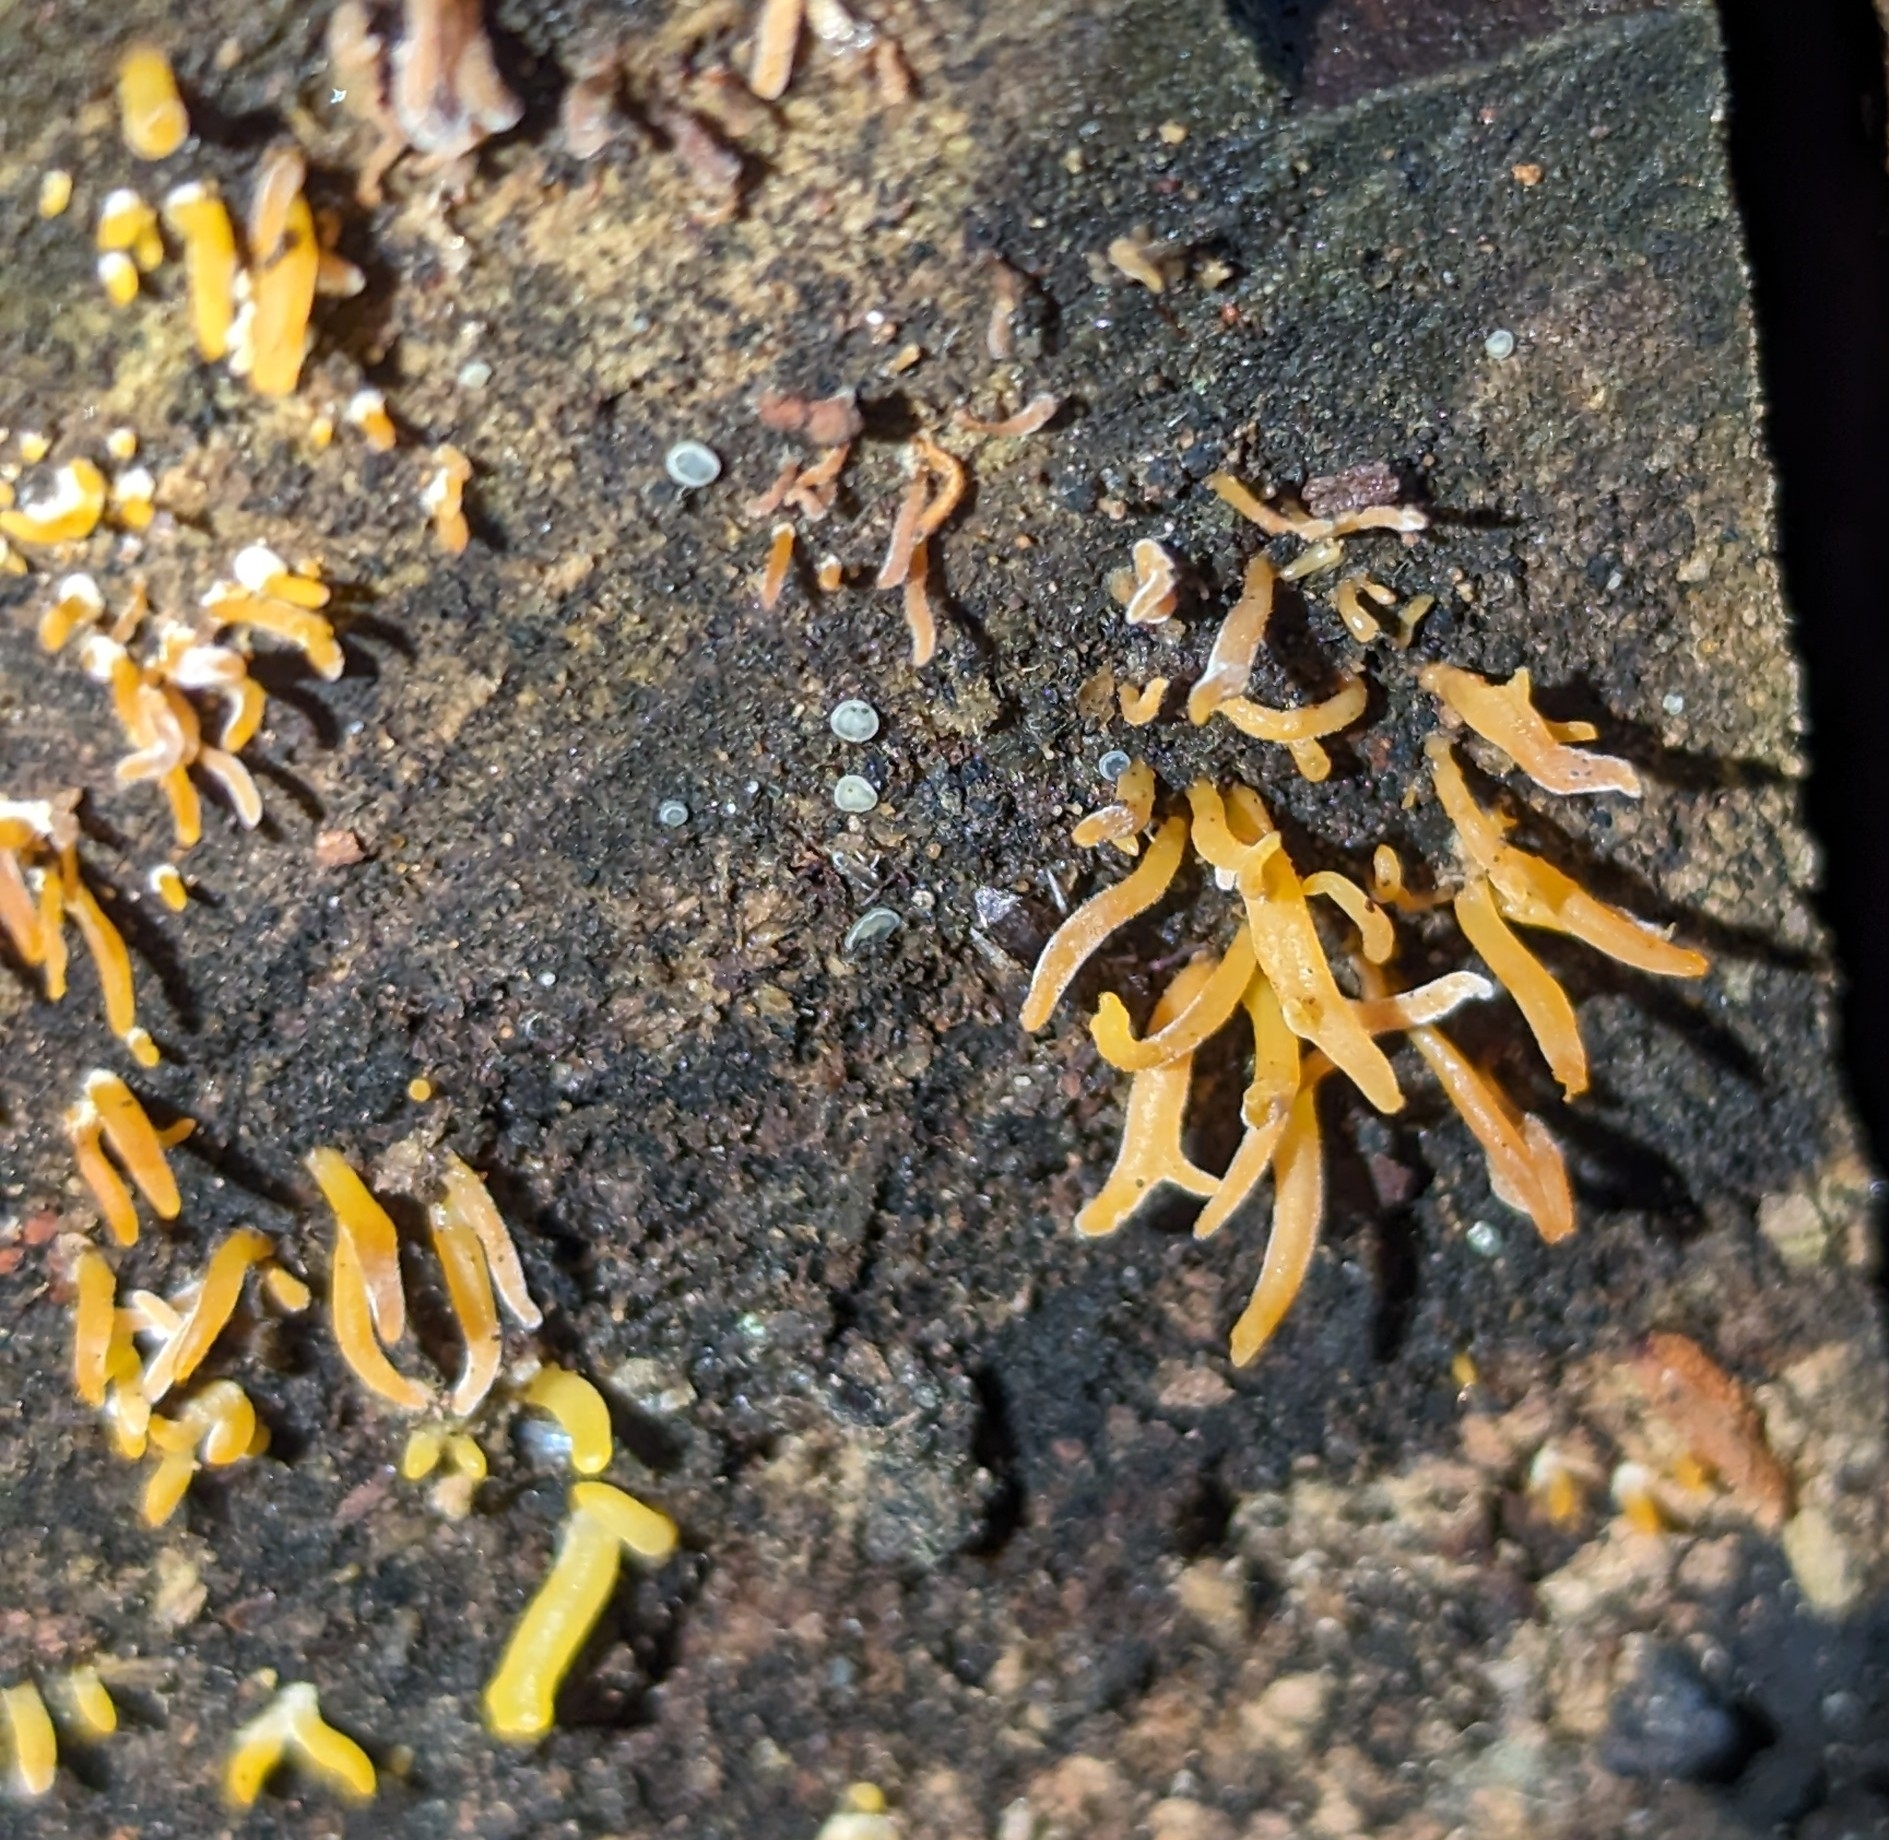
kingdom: Fungi
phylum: Basidiomycota
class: Dacrymycetes
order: Dacrymycetales
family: Dacrymycetaceae
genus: Calocera
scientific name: Calocera cornea
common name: Small stagshorn
